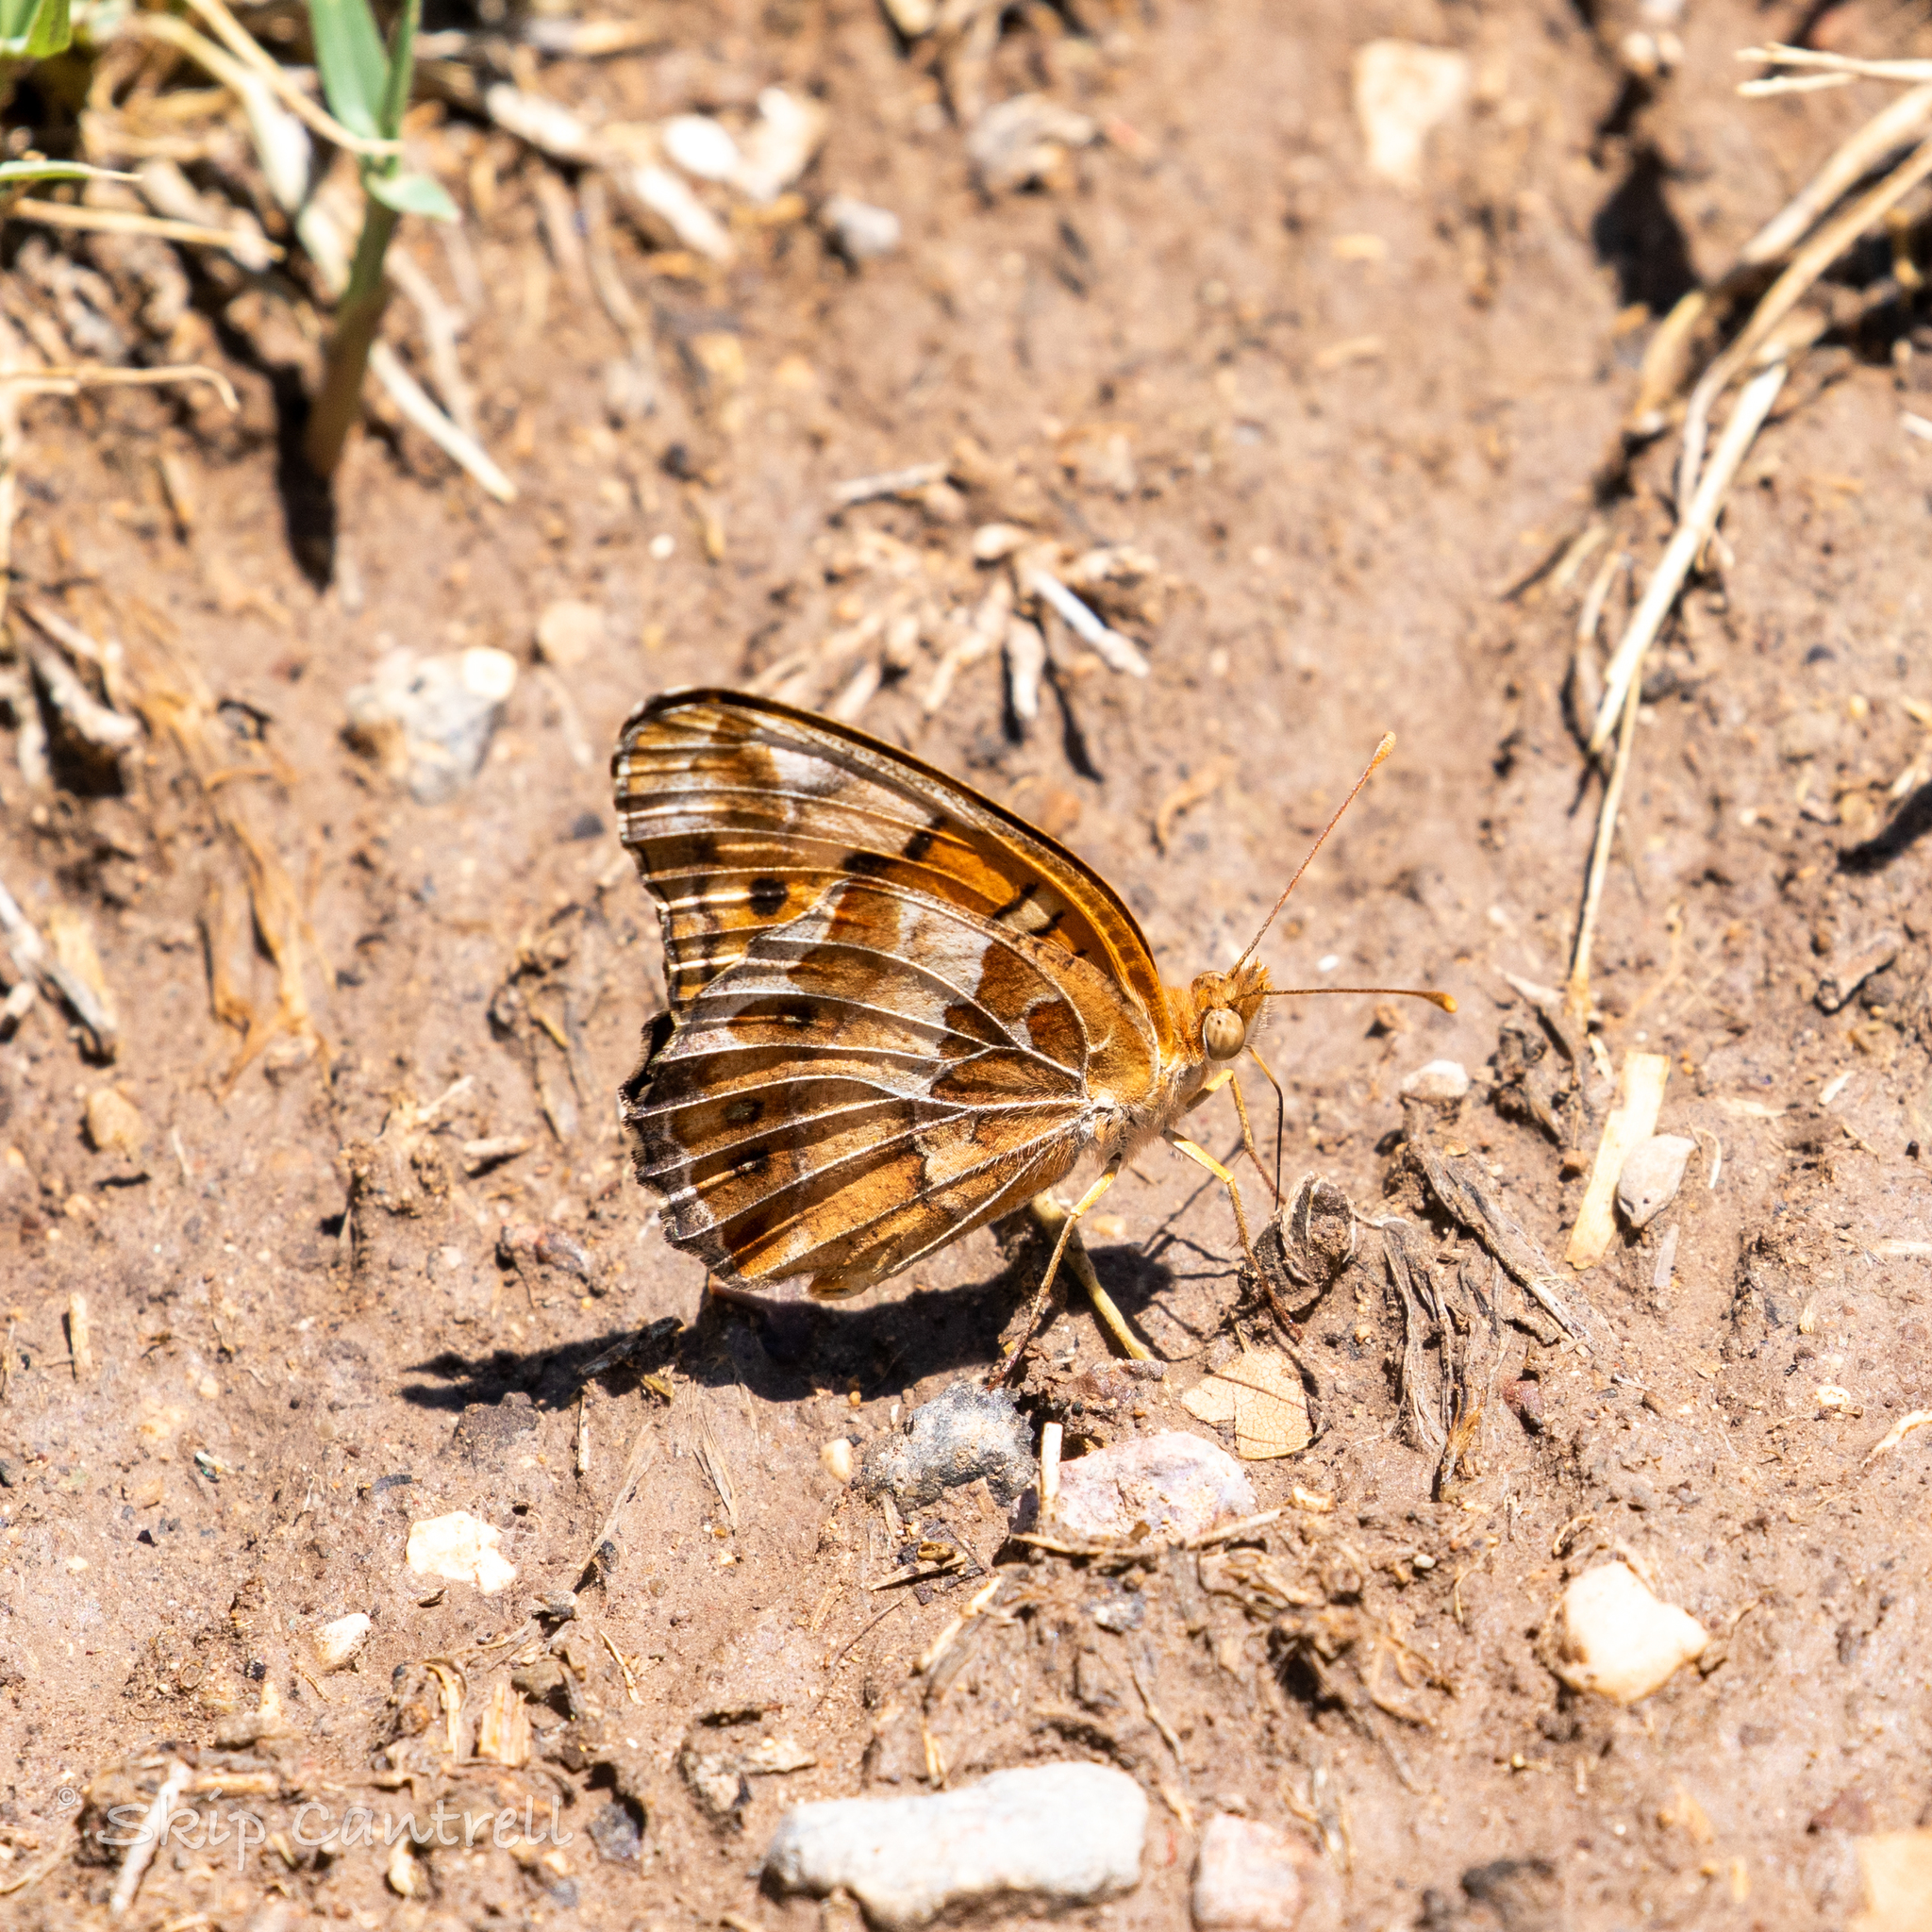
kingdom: Animalia
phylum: Arthropoda
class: Insecta
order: Lepidoptera
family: Nymphalidae
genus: Euptoieta
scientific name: Euptoieta claudia
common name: Variegated fritillary
